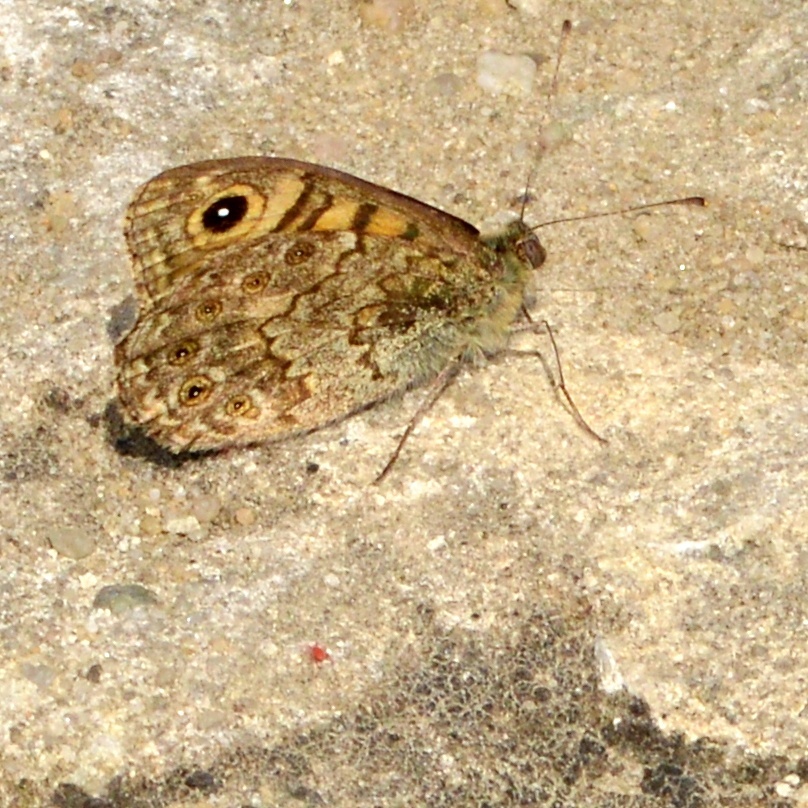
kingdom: Animalia
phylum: Arthropoda
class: Insecta
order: Lepidoptera
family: Nymphalidae
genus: Pararge
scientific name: Pararge Lasiommata megera
